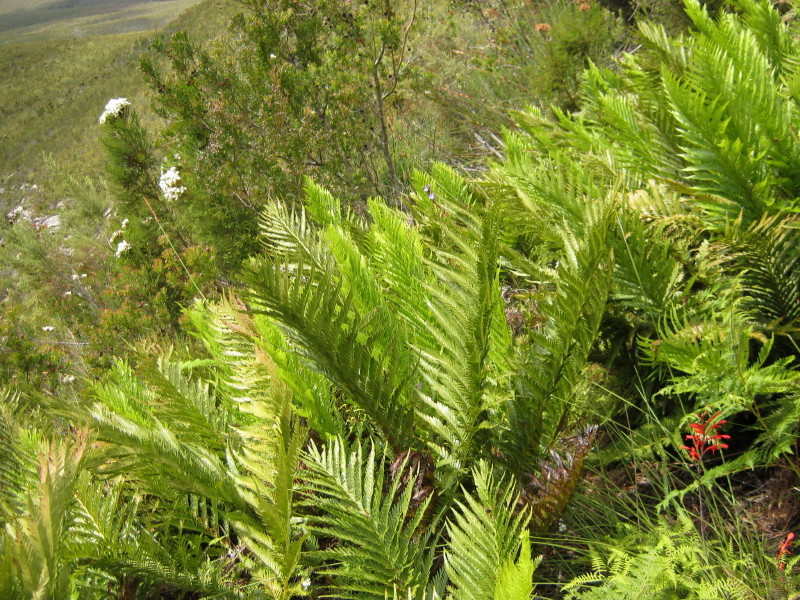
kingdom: Plantae
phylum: Tracheophyta
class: Polypodiopsida
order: Osmundales
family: Osmundaceae
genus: Todea
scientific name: Todea barbara
